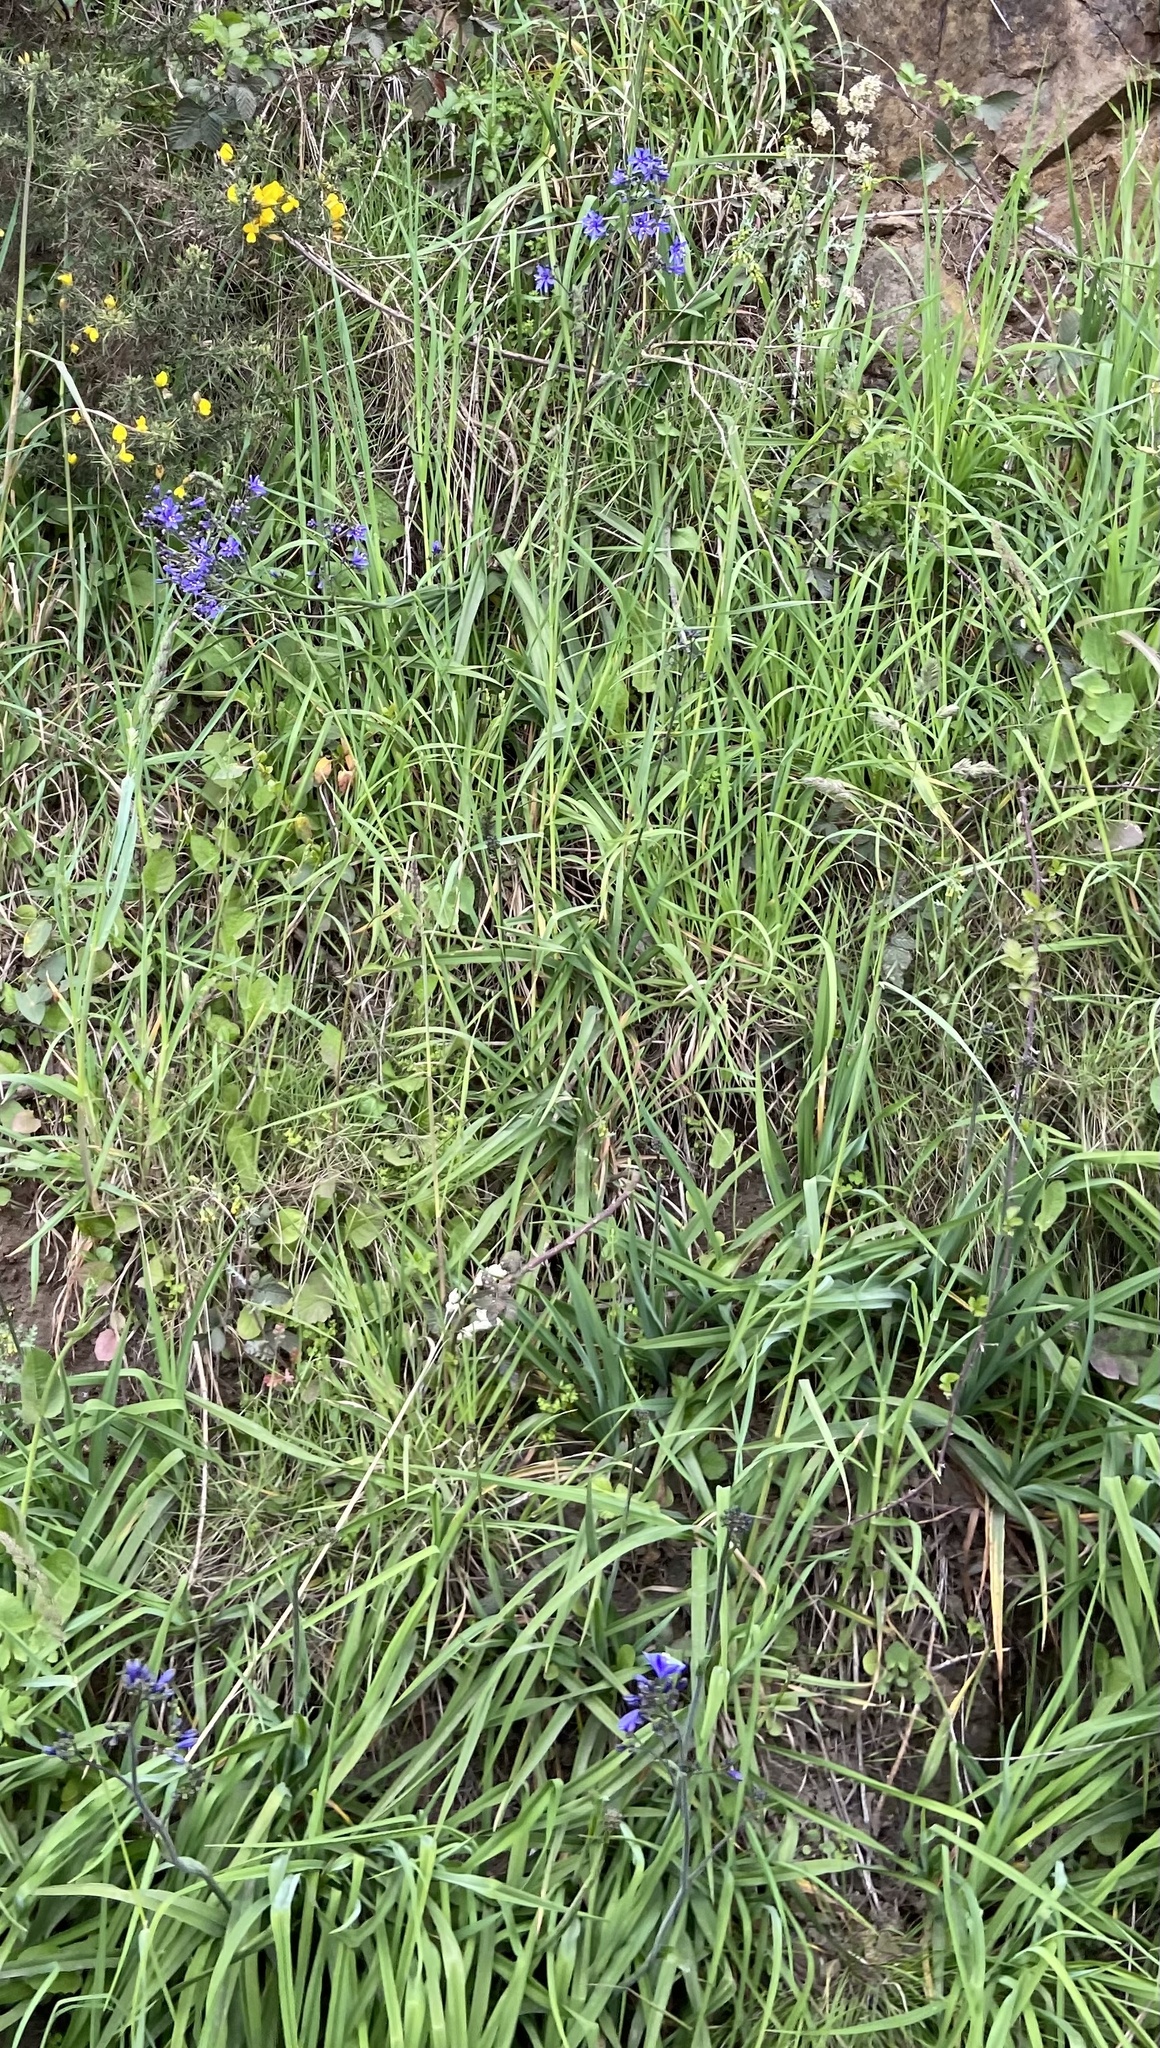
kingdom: Plantae
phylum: Tracheophyta
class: Liliopsida
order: Asparagales
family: Asphodelaceae
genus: Pasithea
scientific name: Pasithea caerulea
